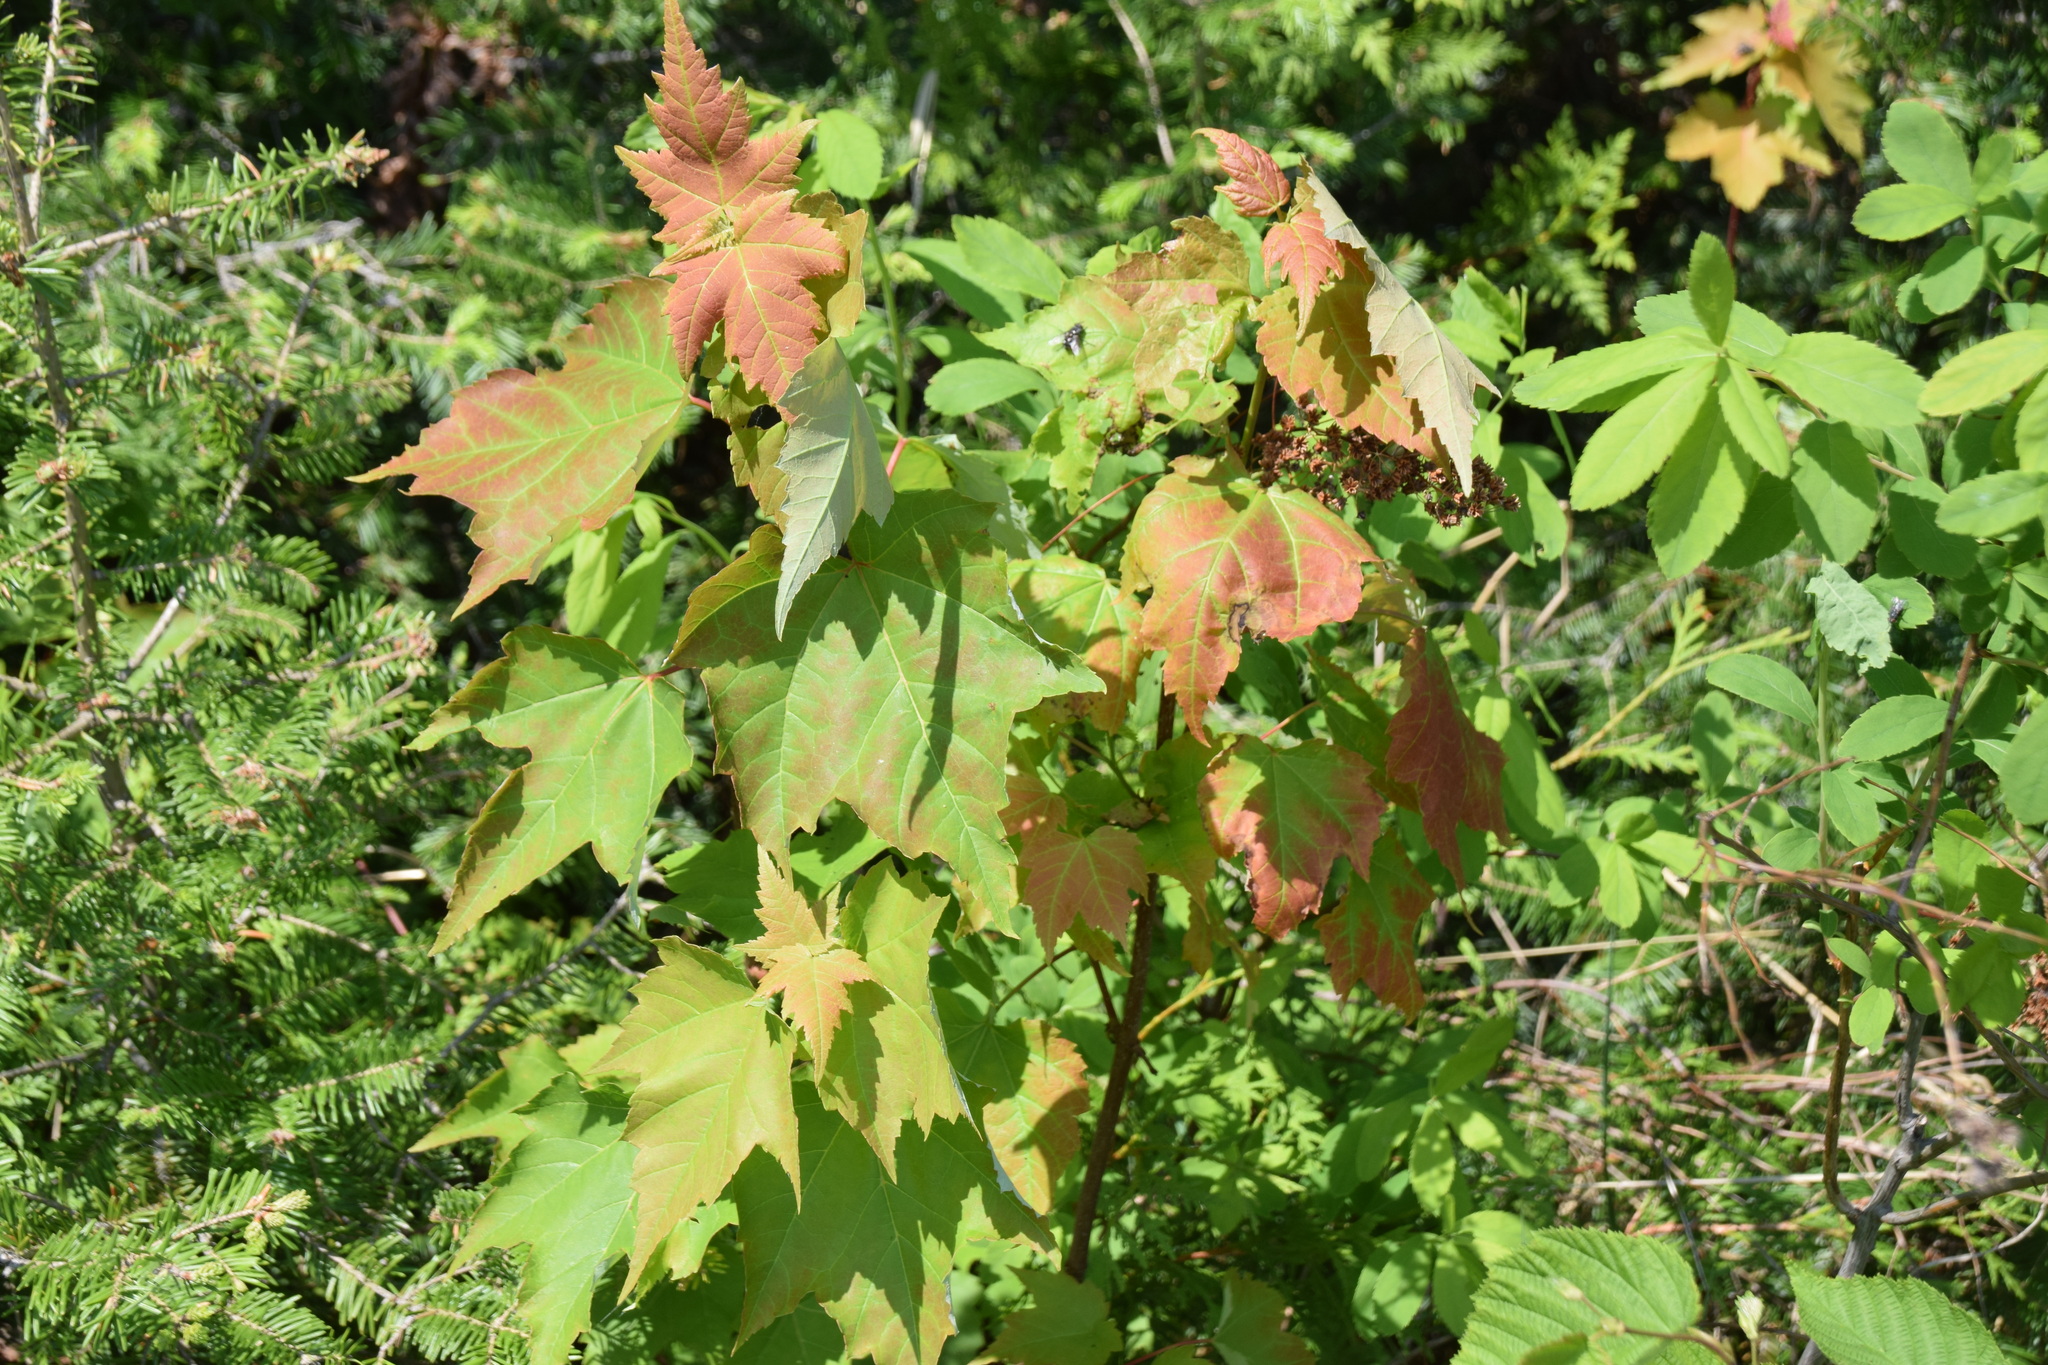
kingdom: Plantae
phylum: Tracheophyta
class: Magnoliopsida
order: Sapindales
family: Sapindaceae
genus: Acer
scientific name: Acer rubrum
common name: Red maple
